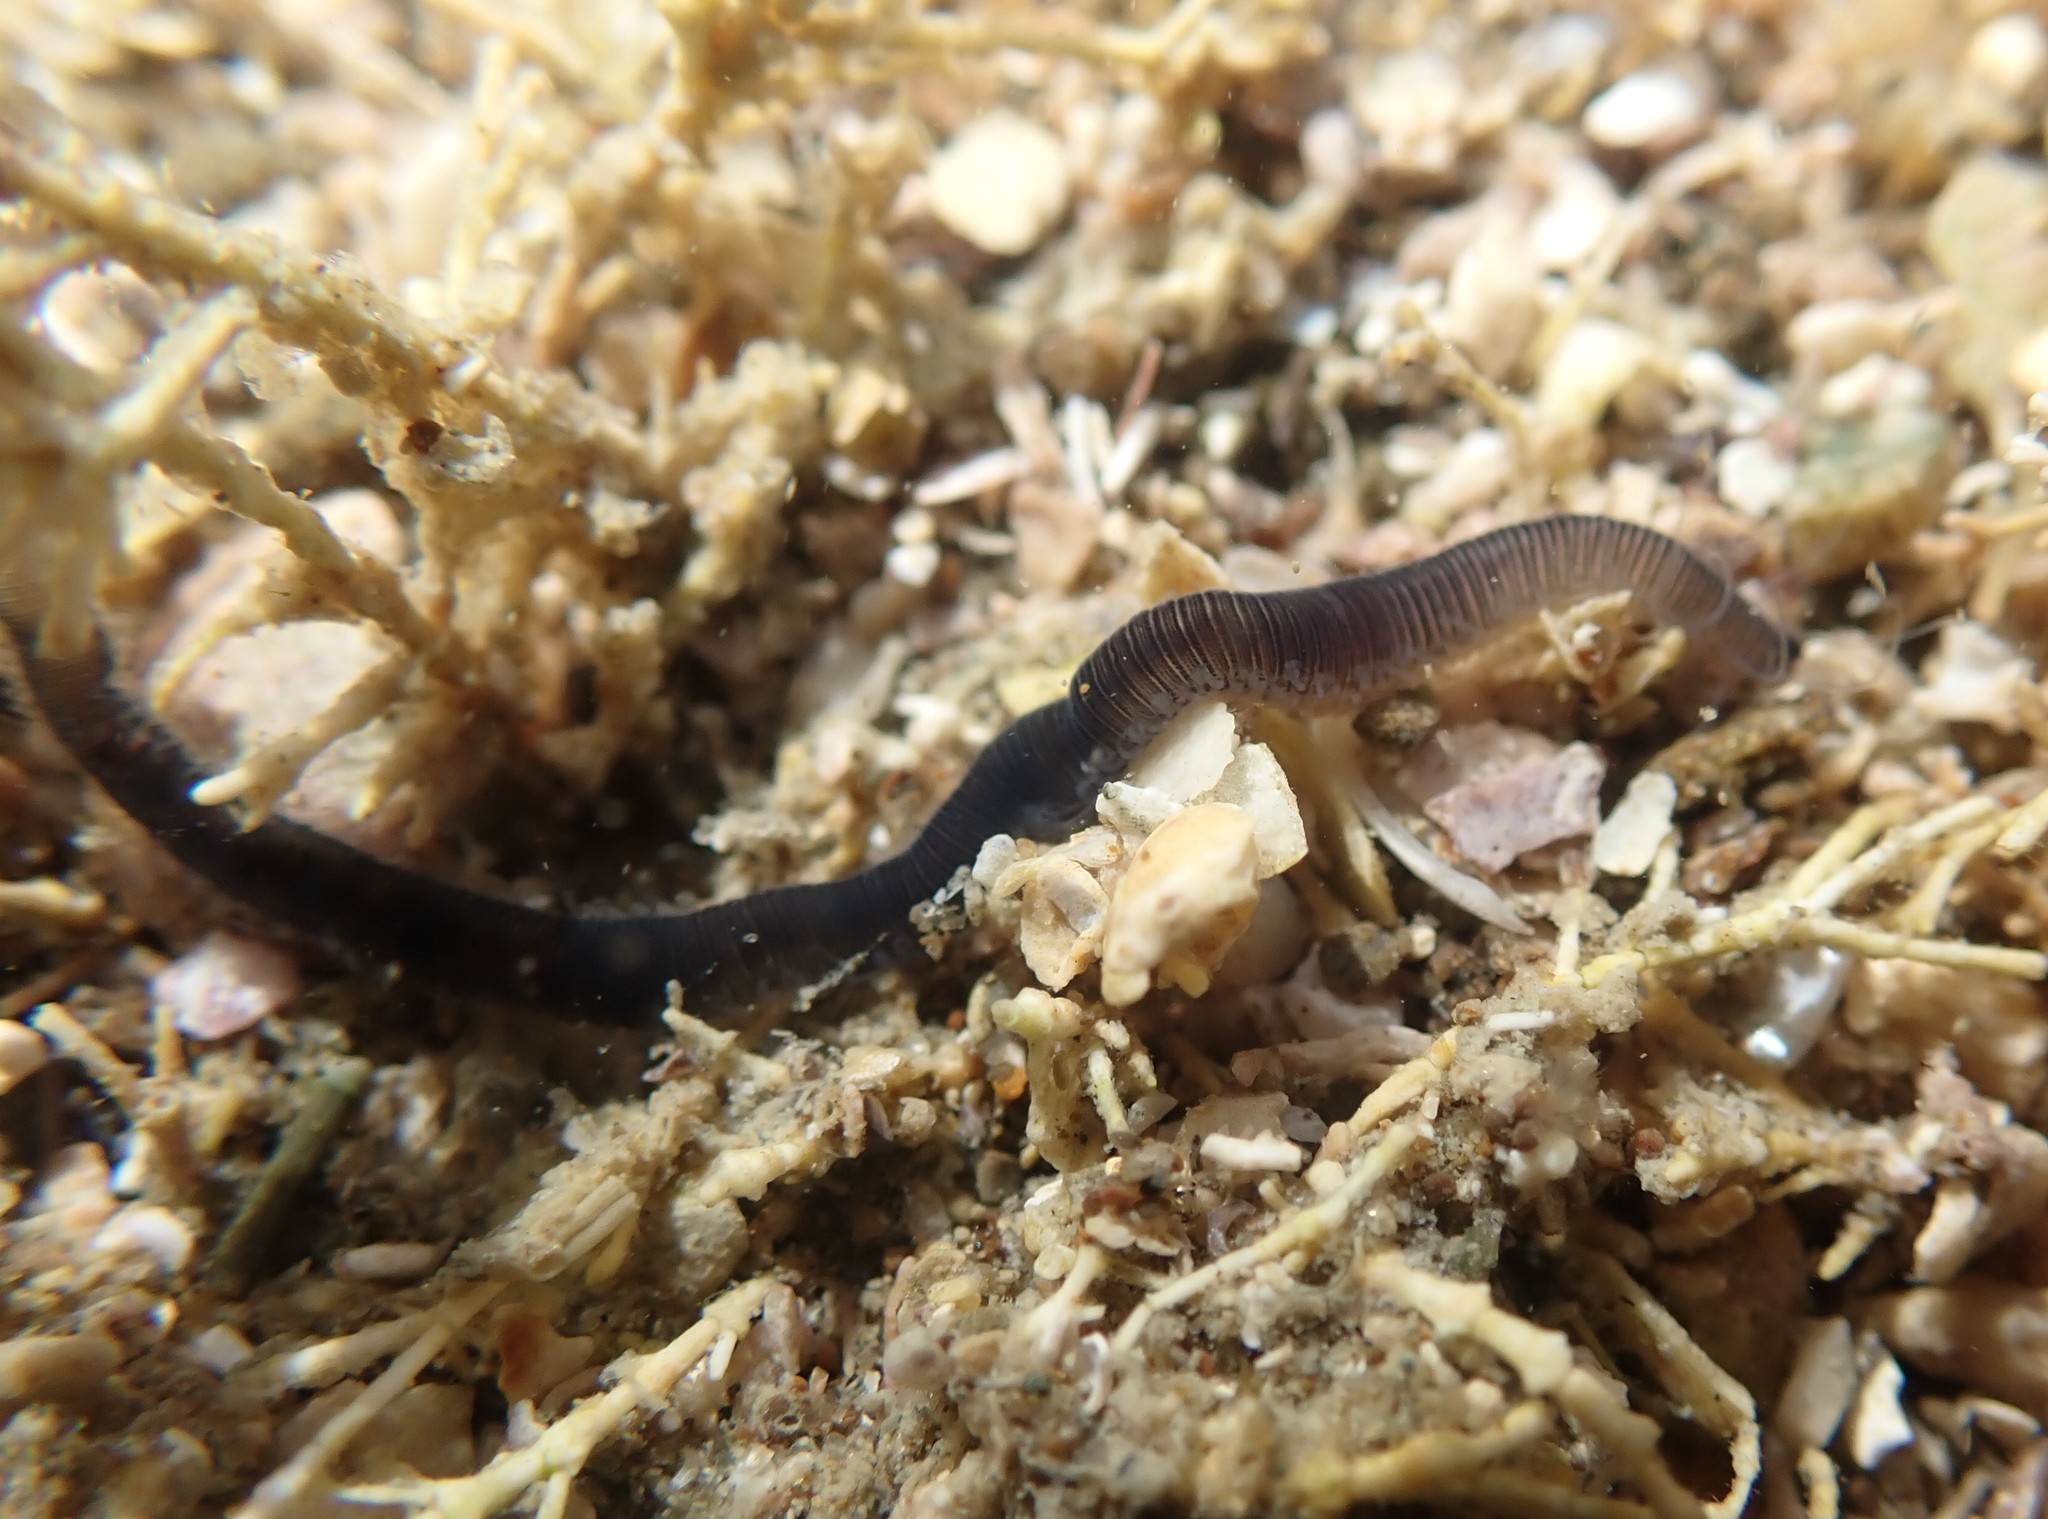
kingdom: Animalia
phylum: Annelida
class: Polychaeta
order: Phyllodocida
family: Syllidae
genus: Odontosyllis
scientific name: Odontosyllis polycera
